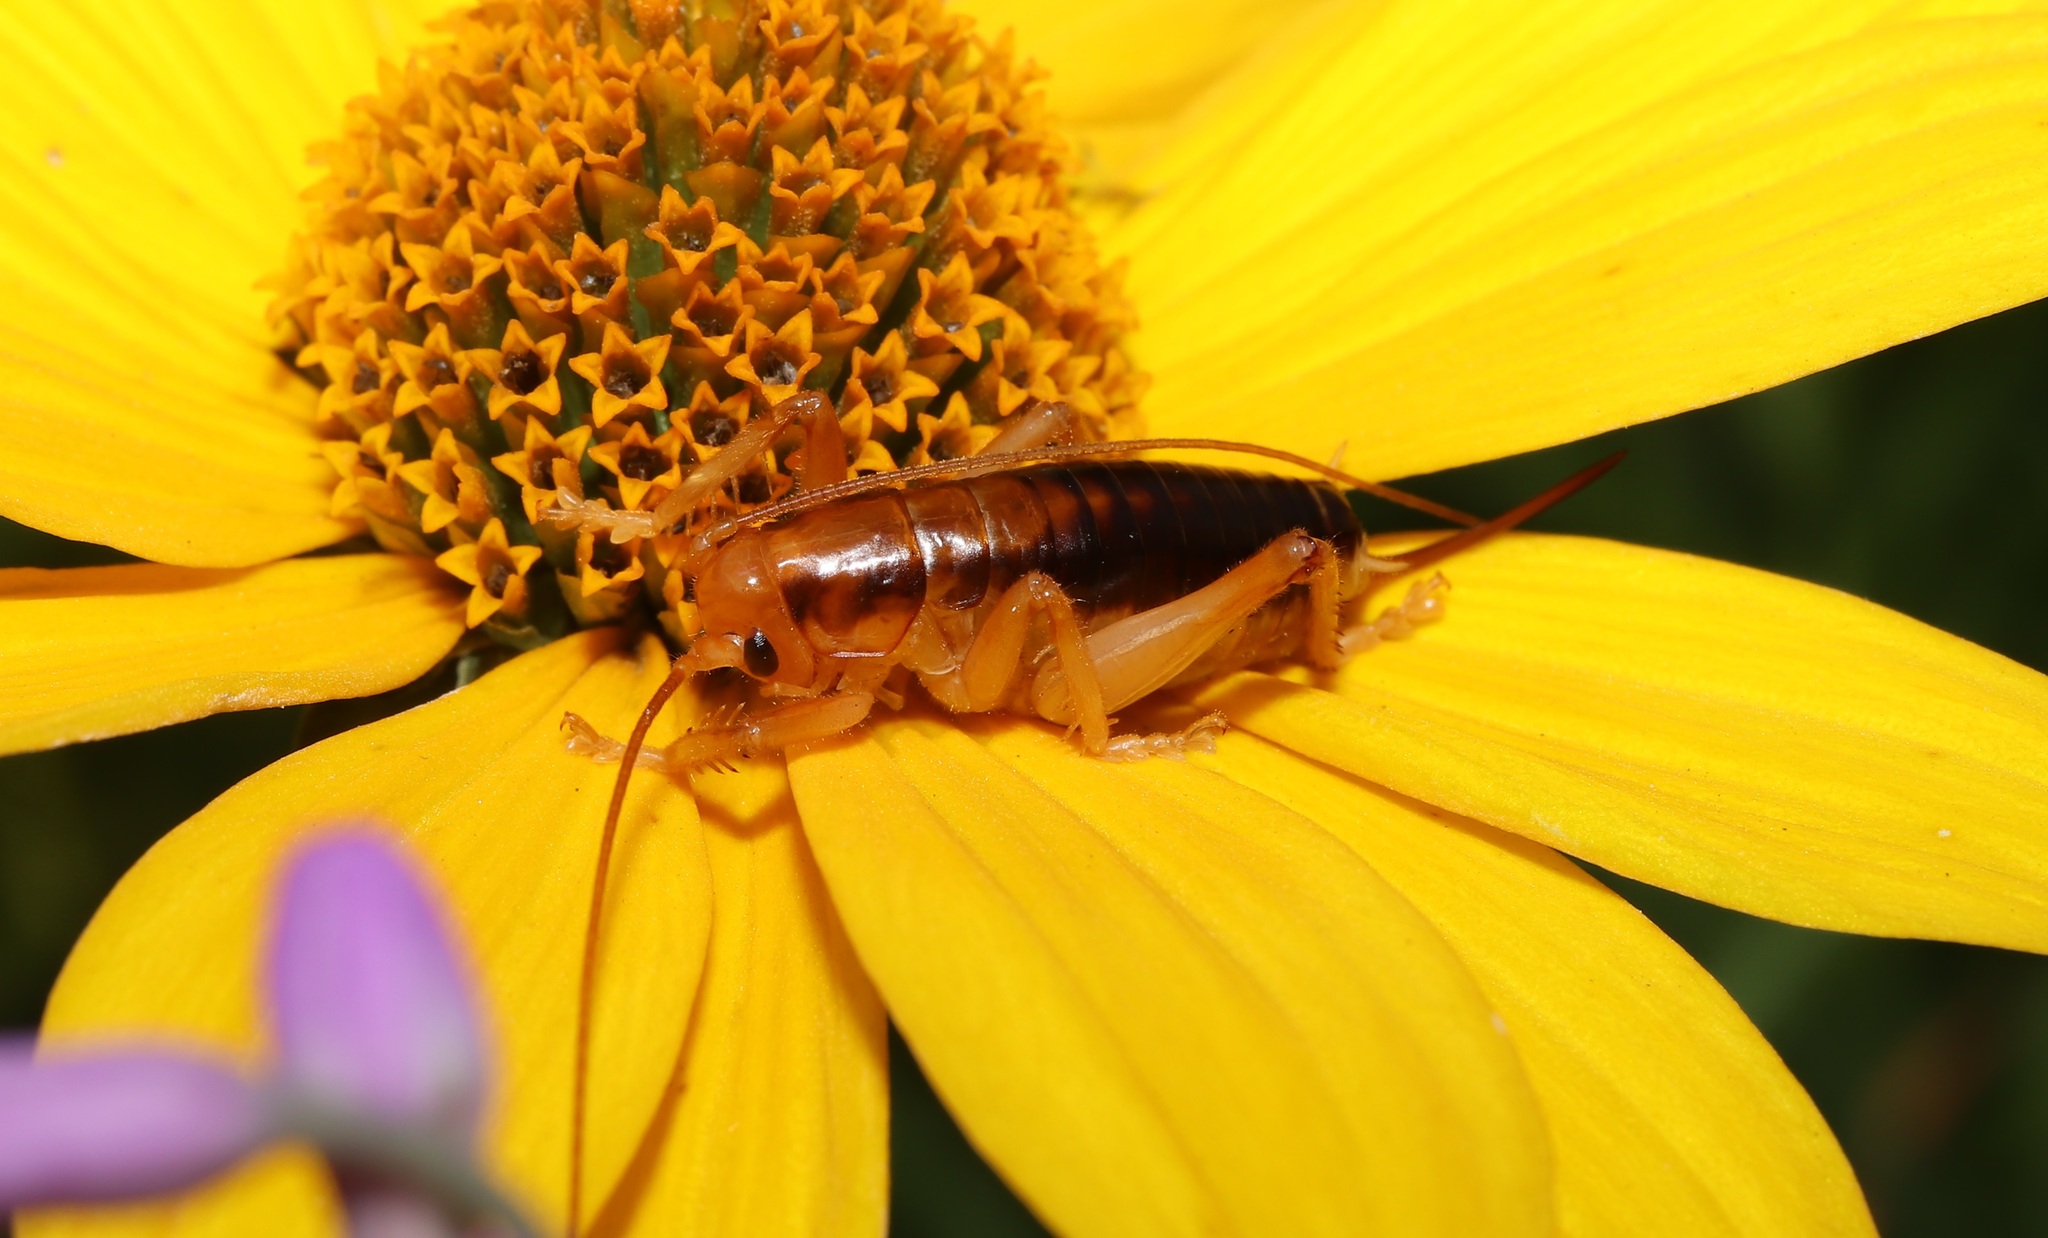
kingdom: Animalia
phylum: Arthropoda
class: Insecta
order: Orthoptera
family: Gryllacrididae
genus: Nippancistroger
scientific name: Nippancistroger testaceus
